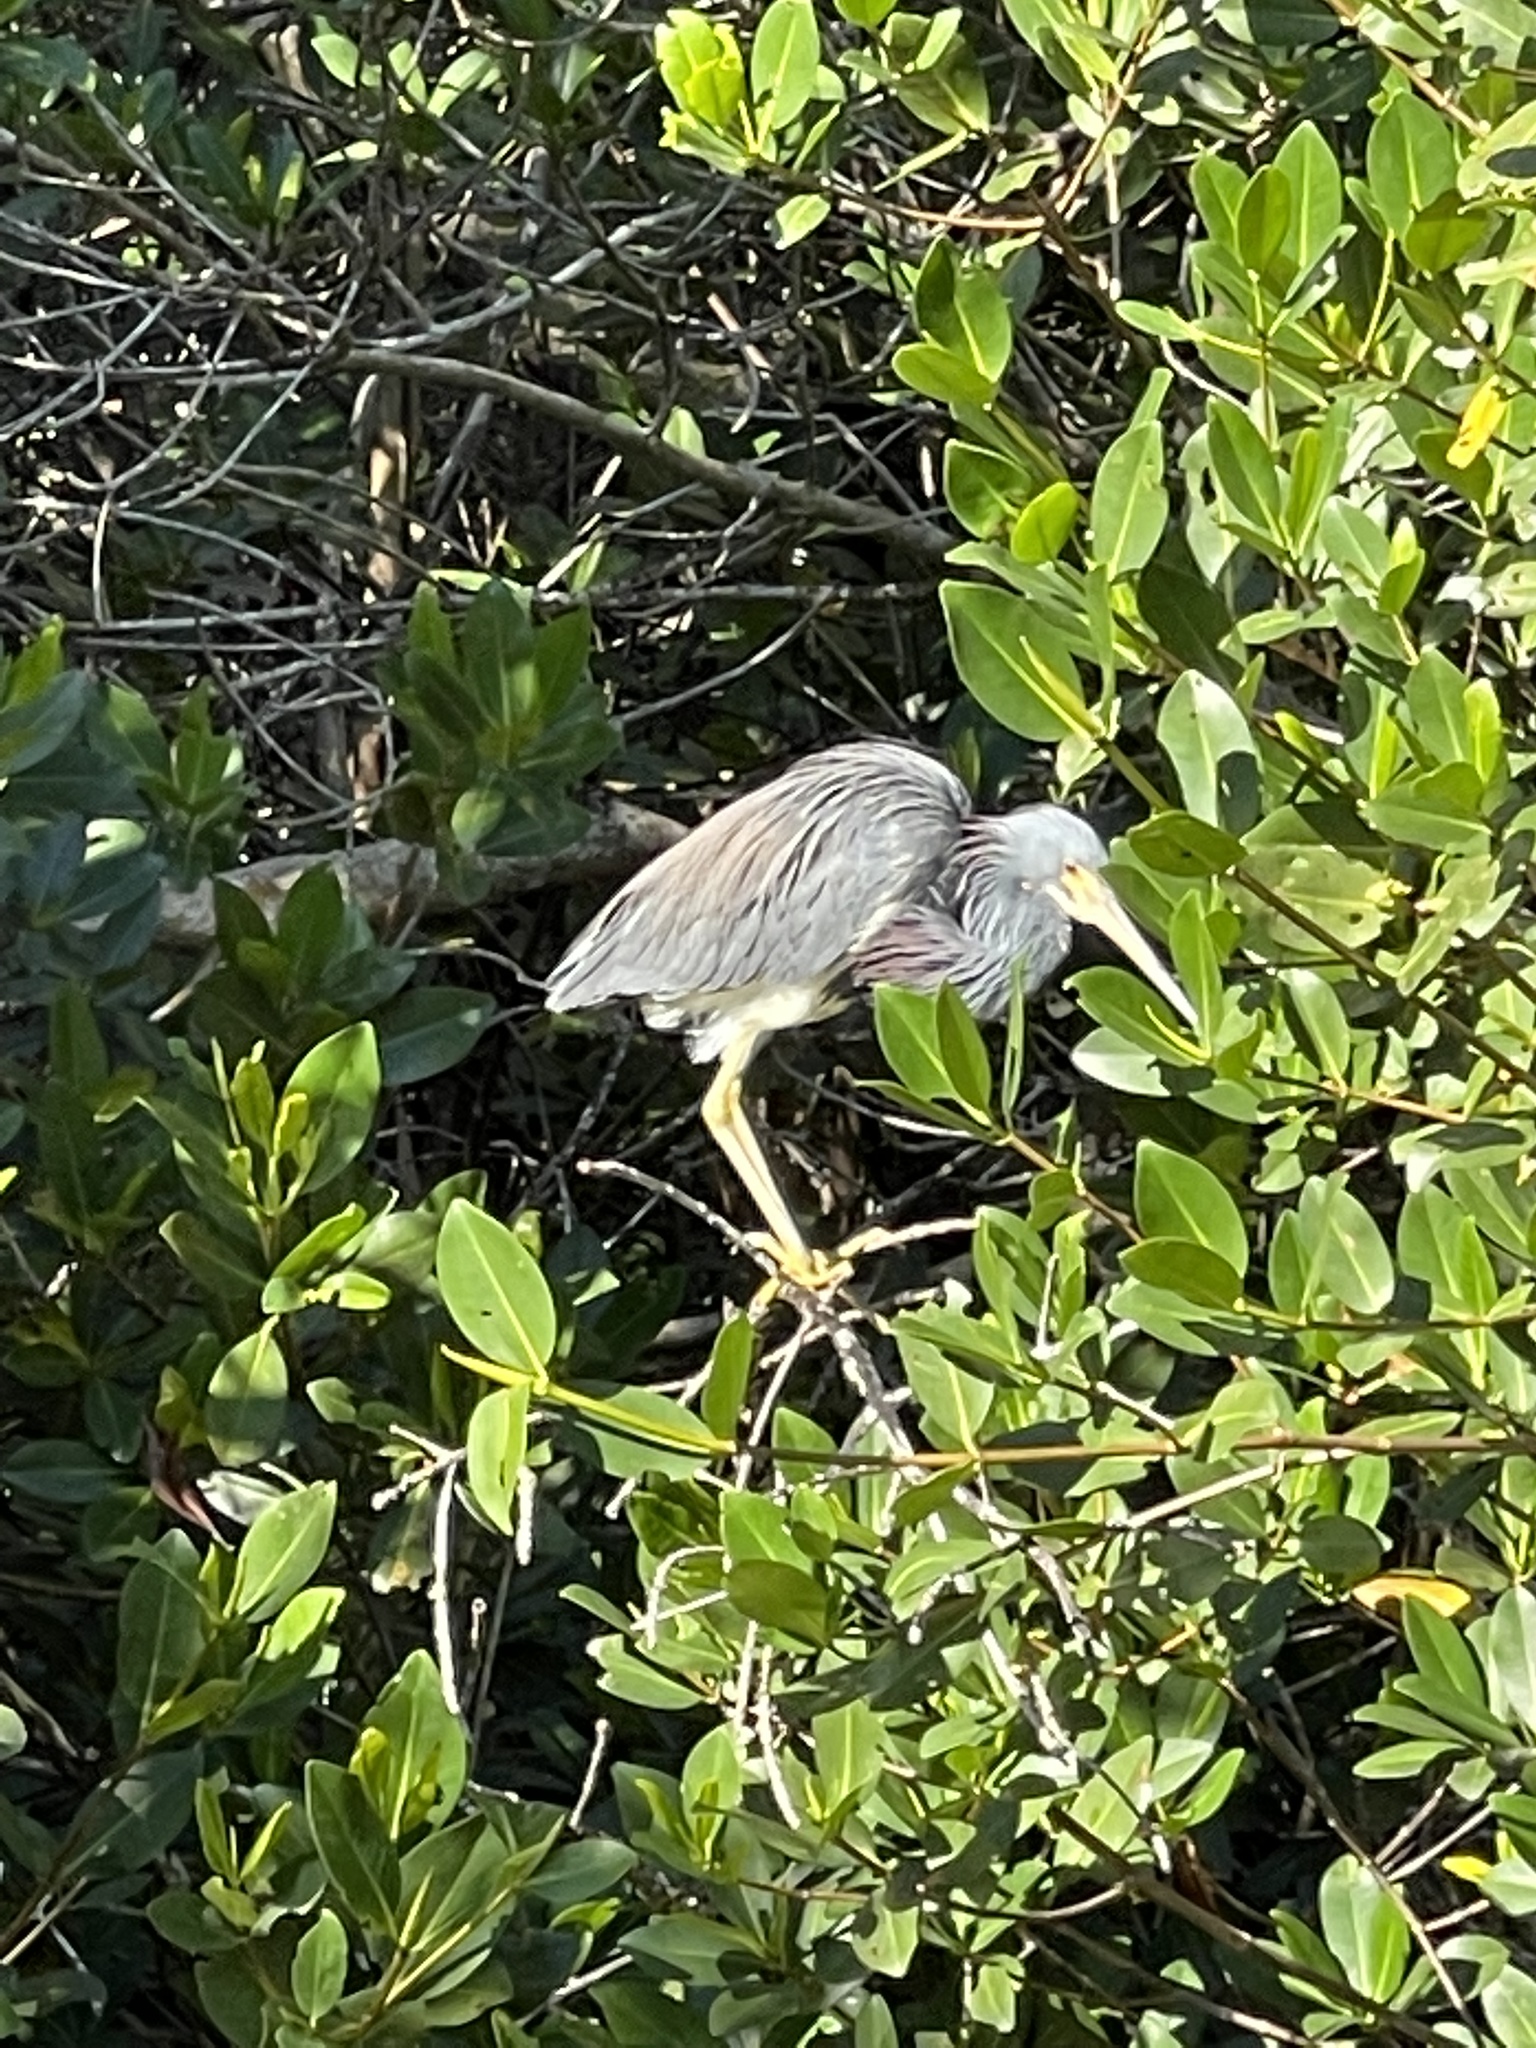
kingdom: Animalia
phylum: Chordata
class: Aves
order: Pelecaniformes
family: Ardeidae
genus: Egretta
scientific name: Egretta tricolor
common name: Tricolored heron
